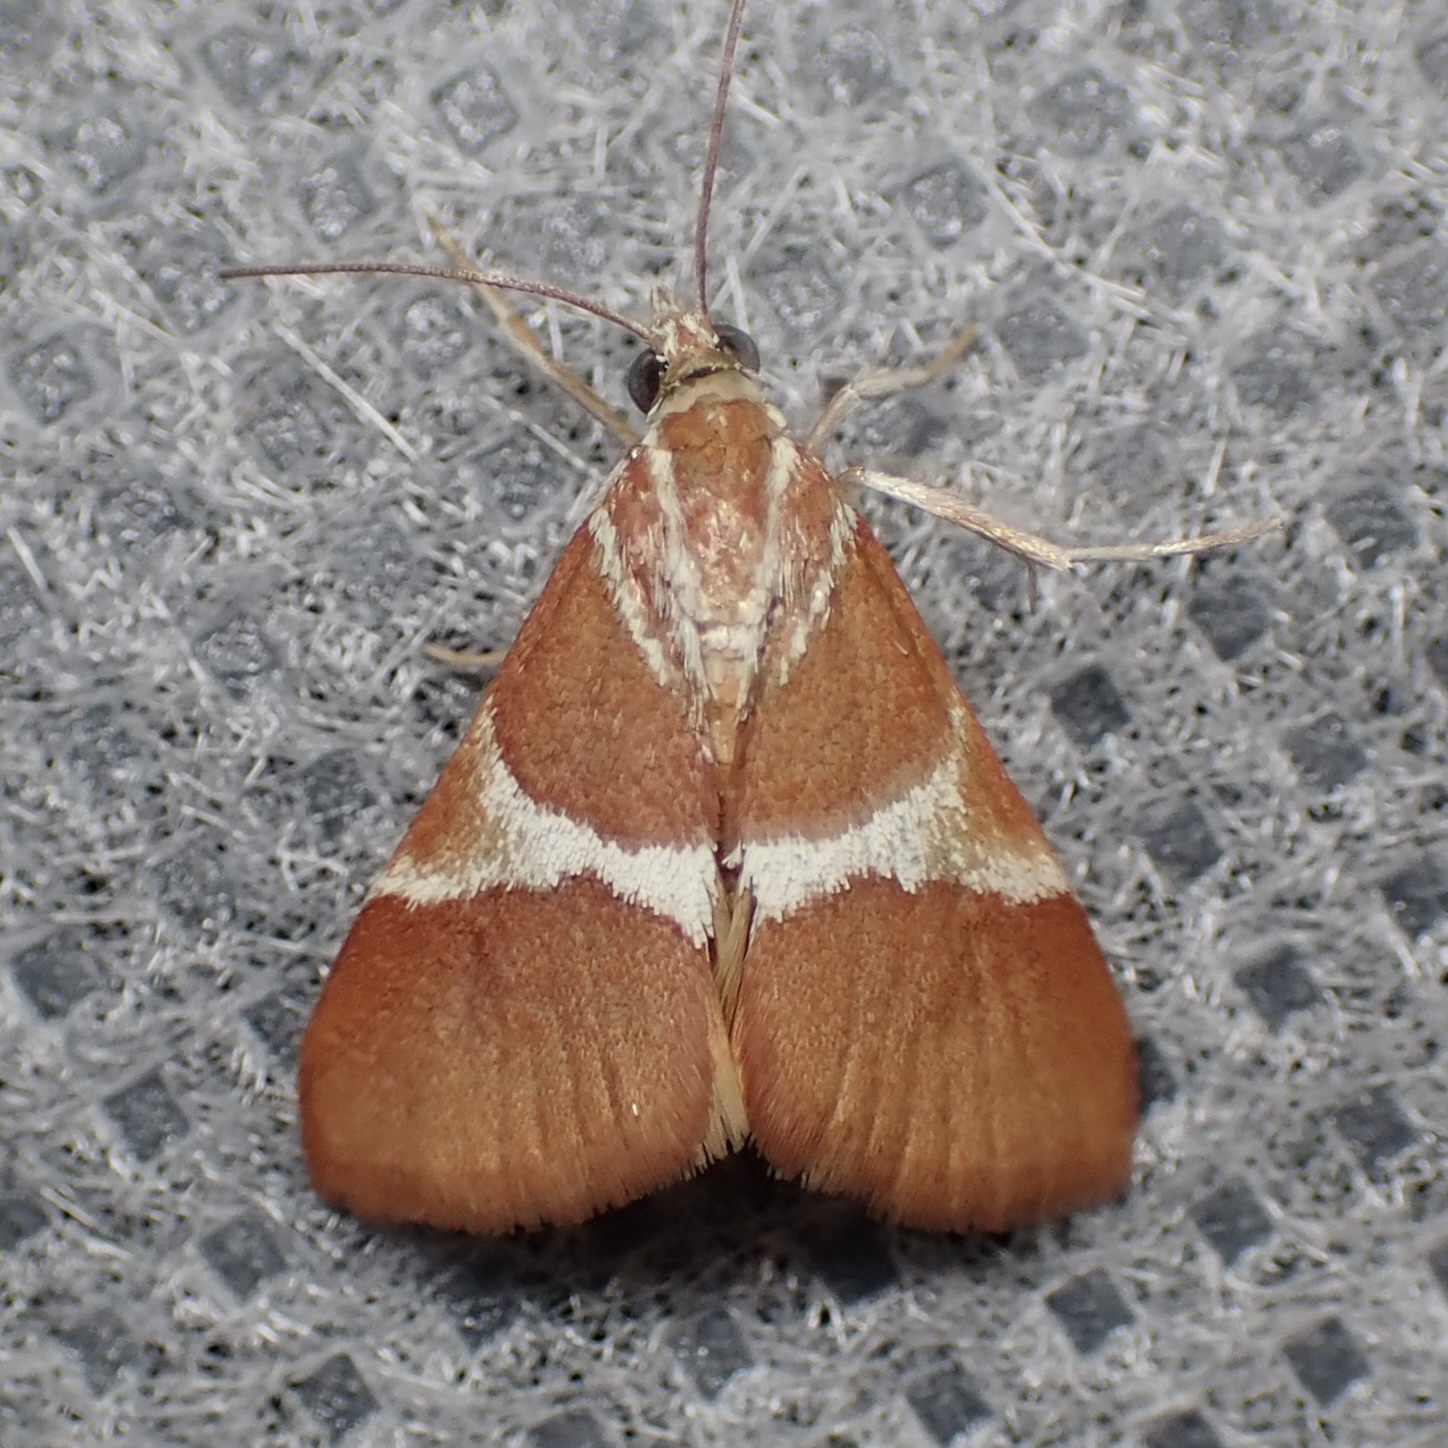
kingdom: Animalia
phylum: Arthropoda
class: Insecta
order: Lepidoptera
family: Crambidae
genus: Jativa
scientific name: Jativa castanealis
